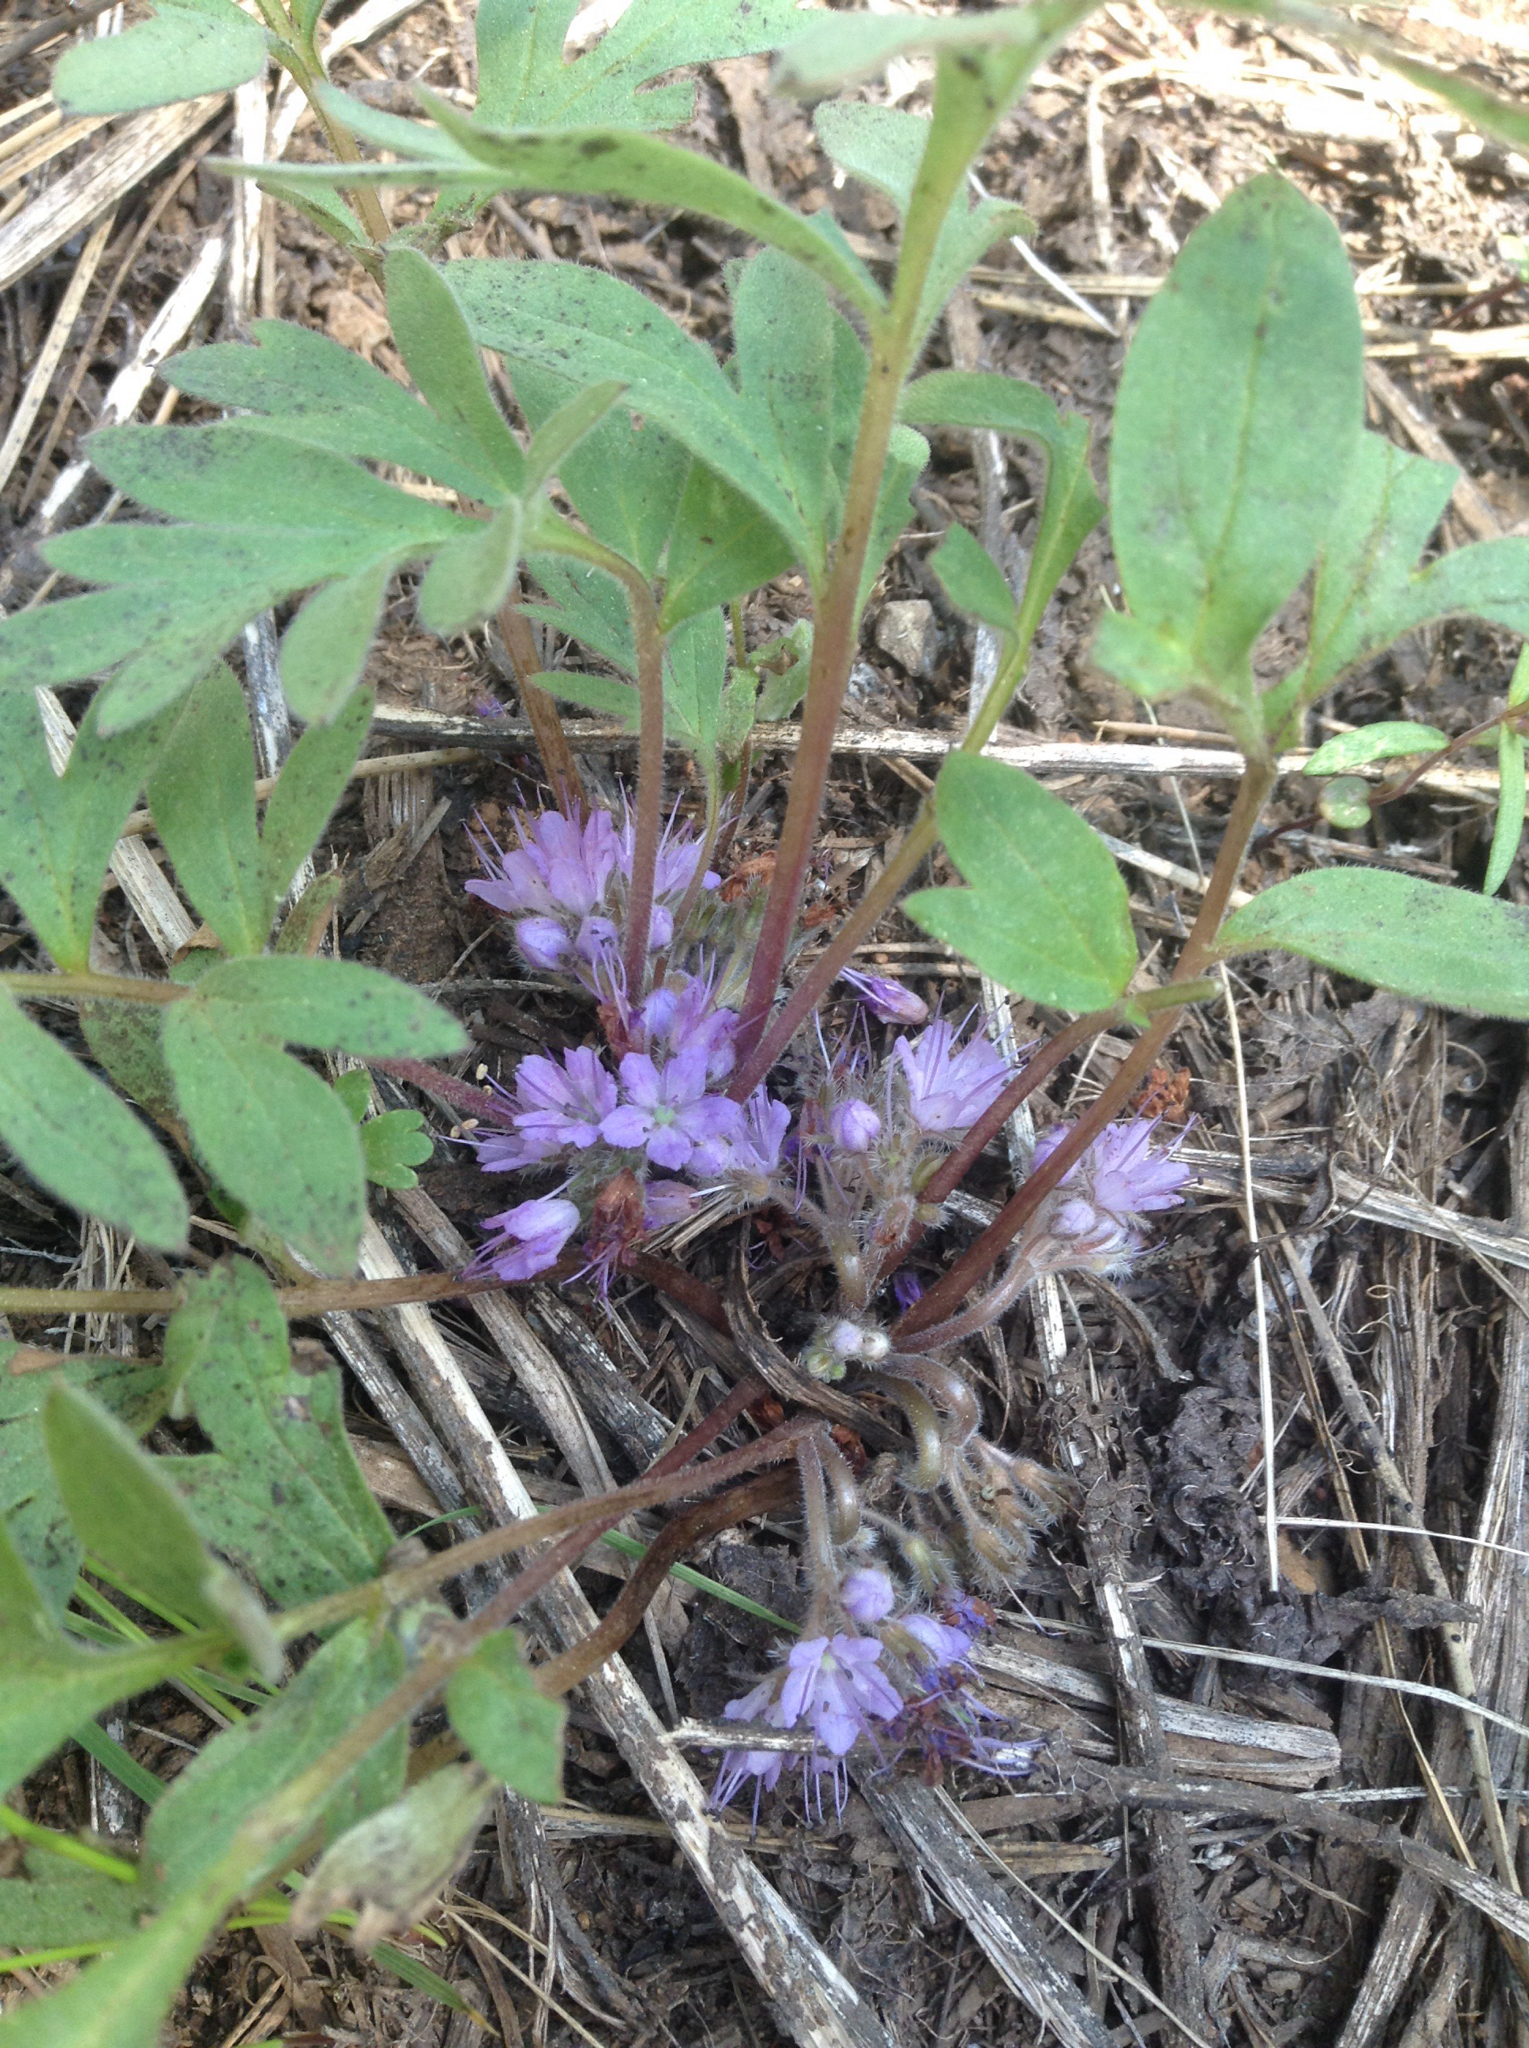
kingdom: Plantae
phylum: Tracheophyta
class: Magnoliopsida
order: Boraginales
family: Hydrophyllaceae
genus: Hydrophyllum
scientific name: Hydrophyllum alpestre
